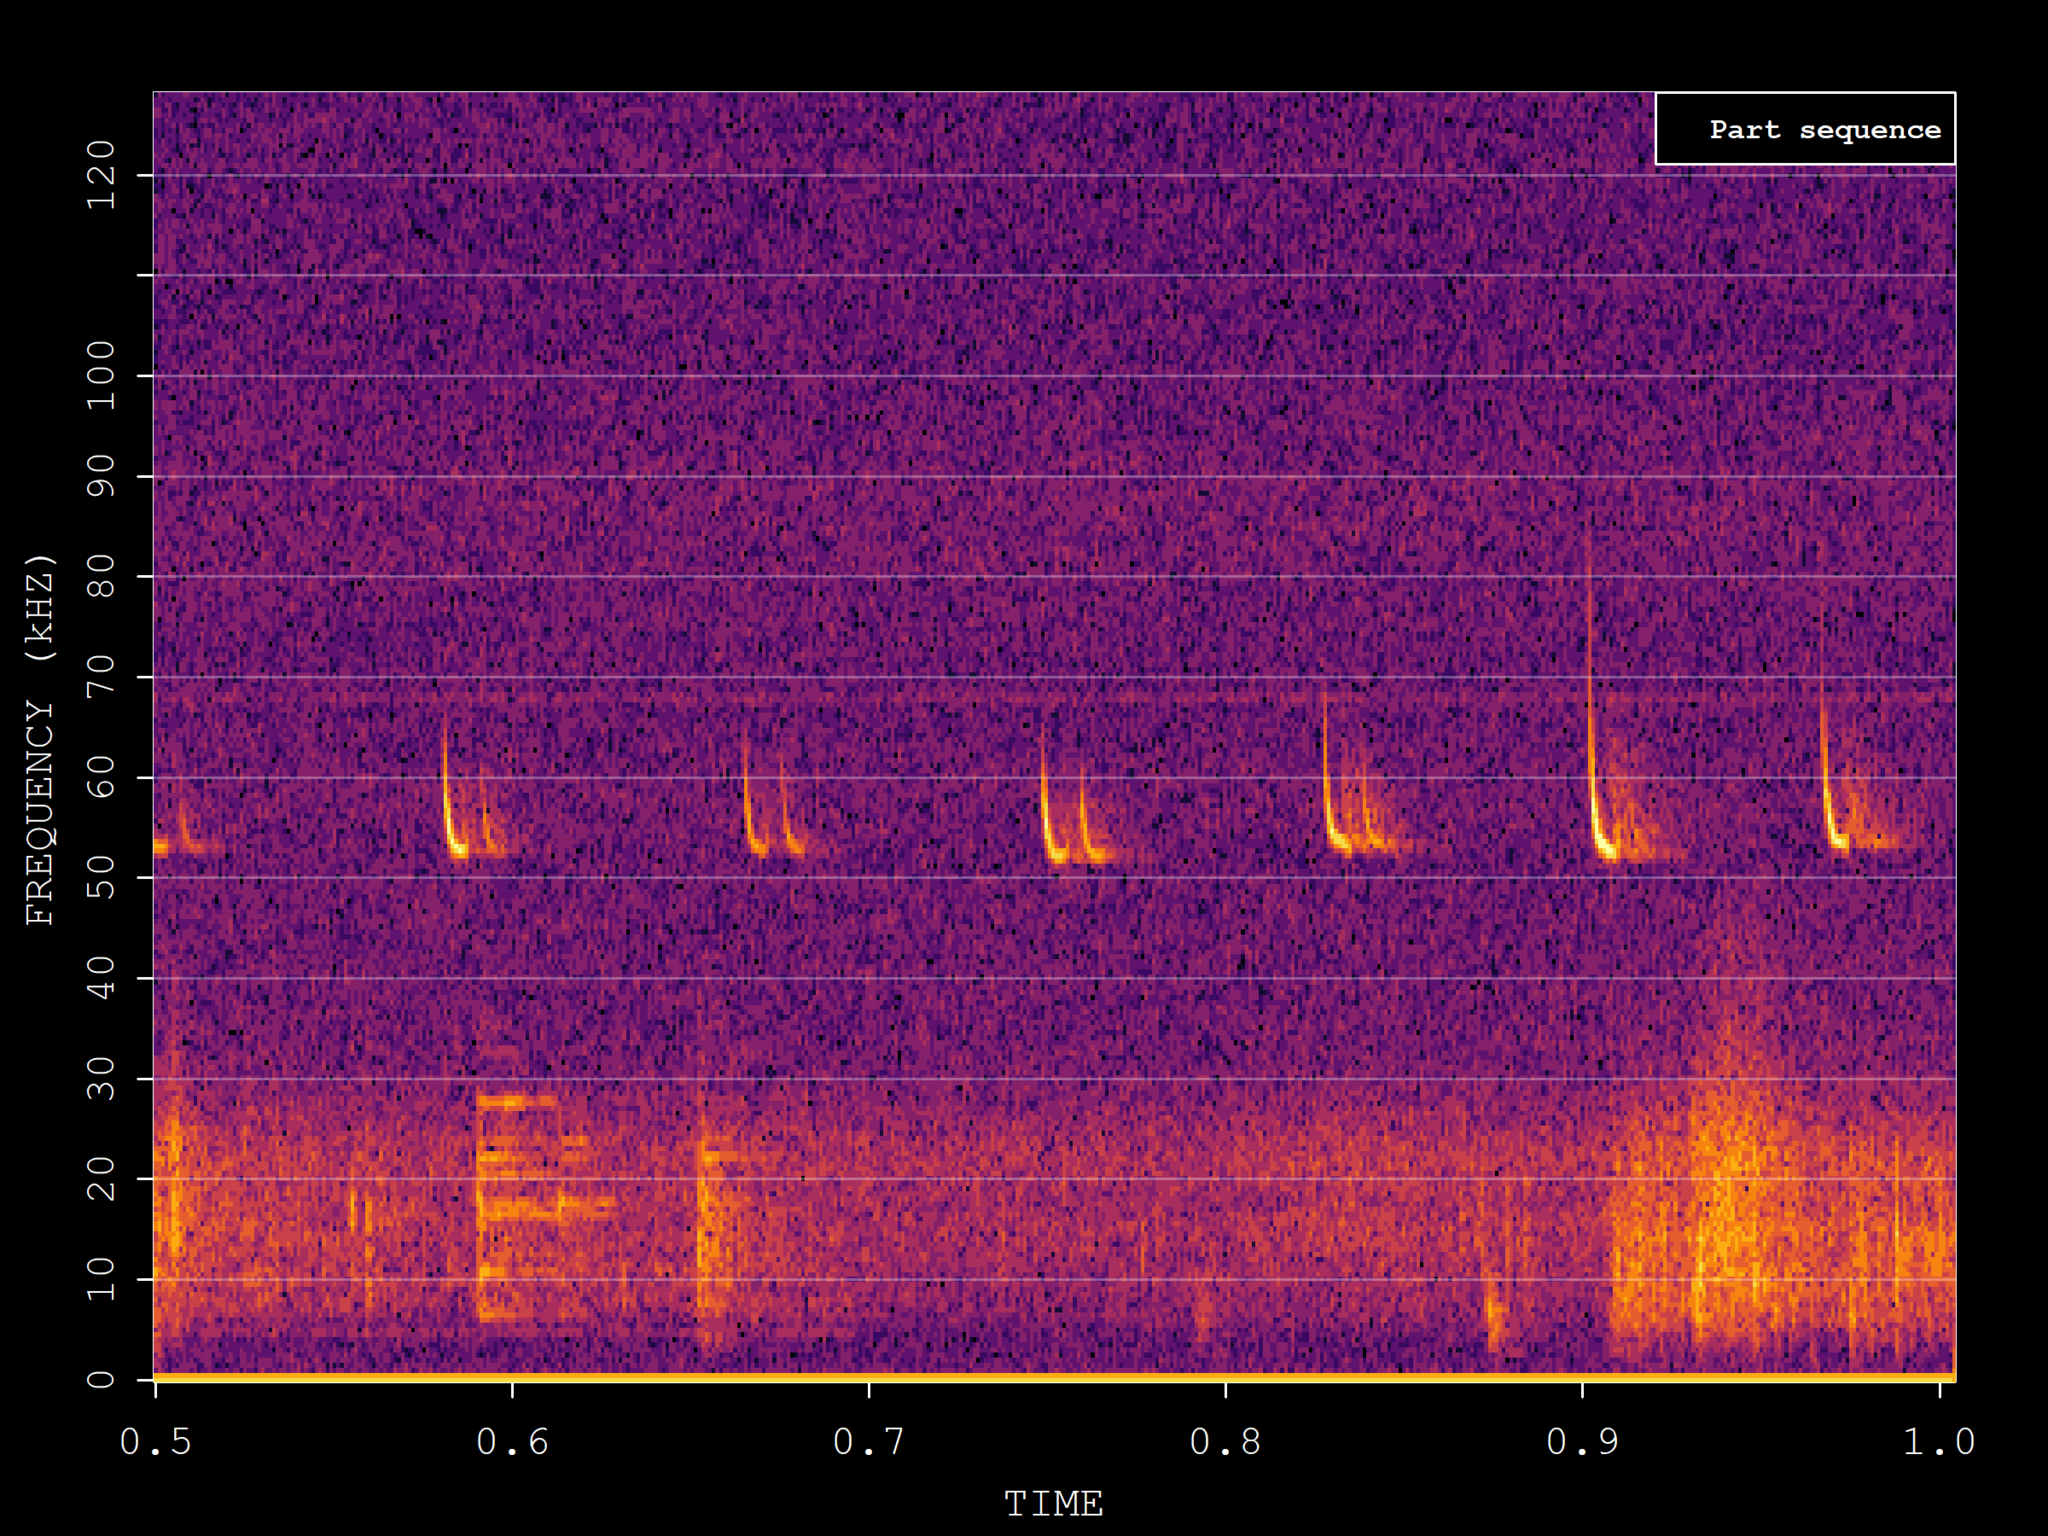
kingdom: Animalia
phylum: Chordata
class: Mammalia
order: Chiroptera
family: Vespertilionidae
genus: Pipistrellus
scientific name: Pipistrellus pygmaeus
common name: Soprano pipistrelle
